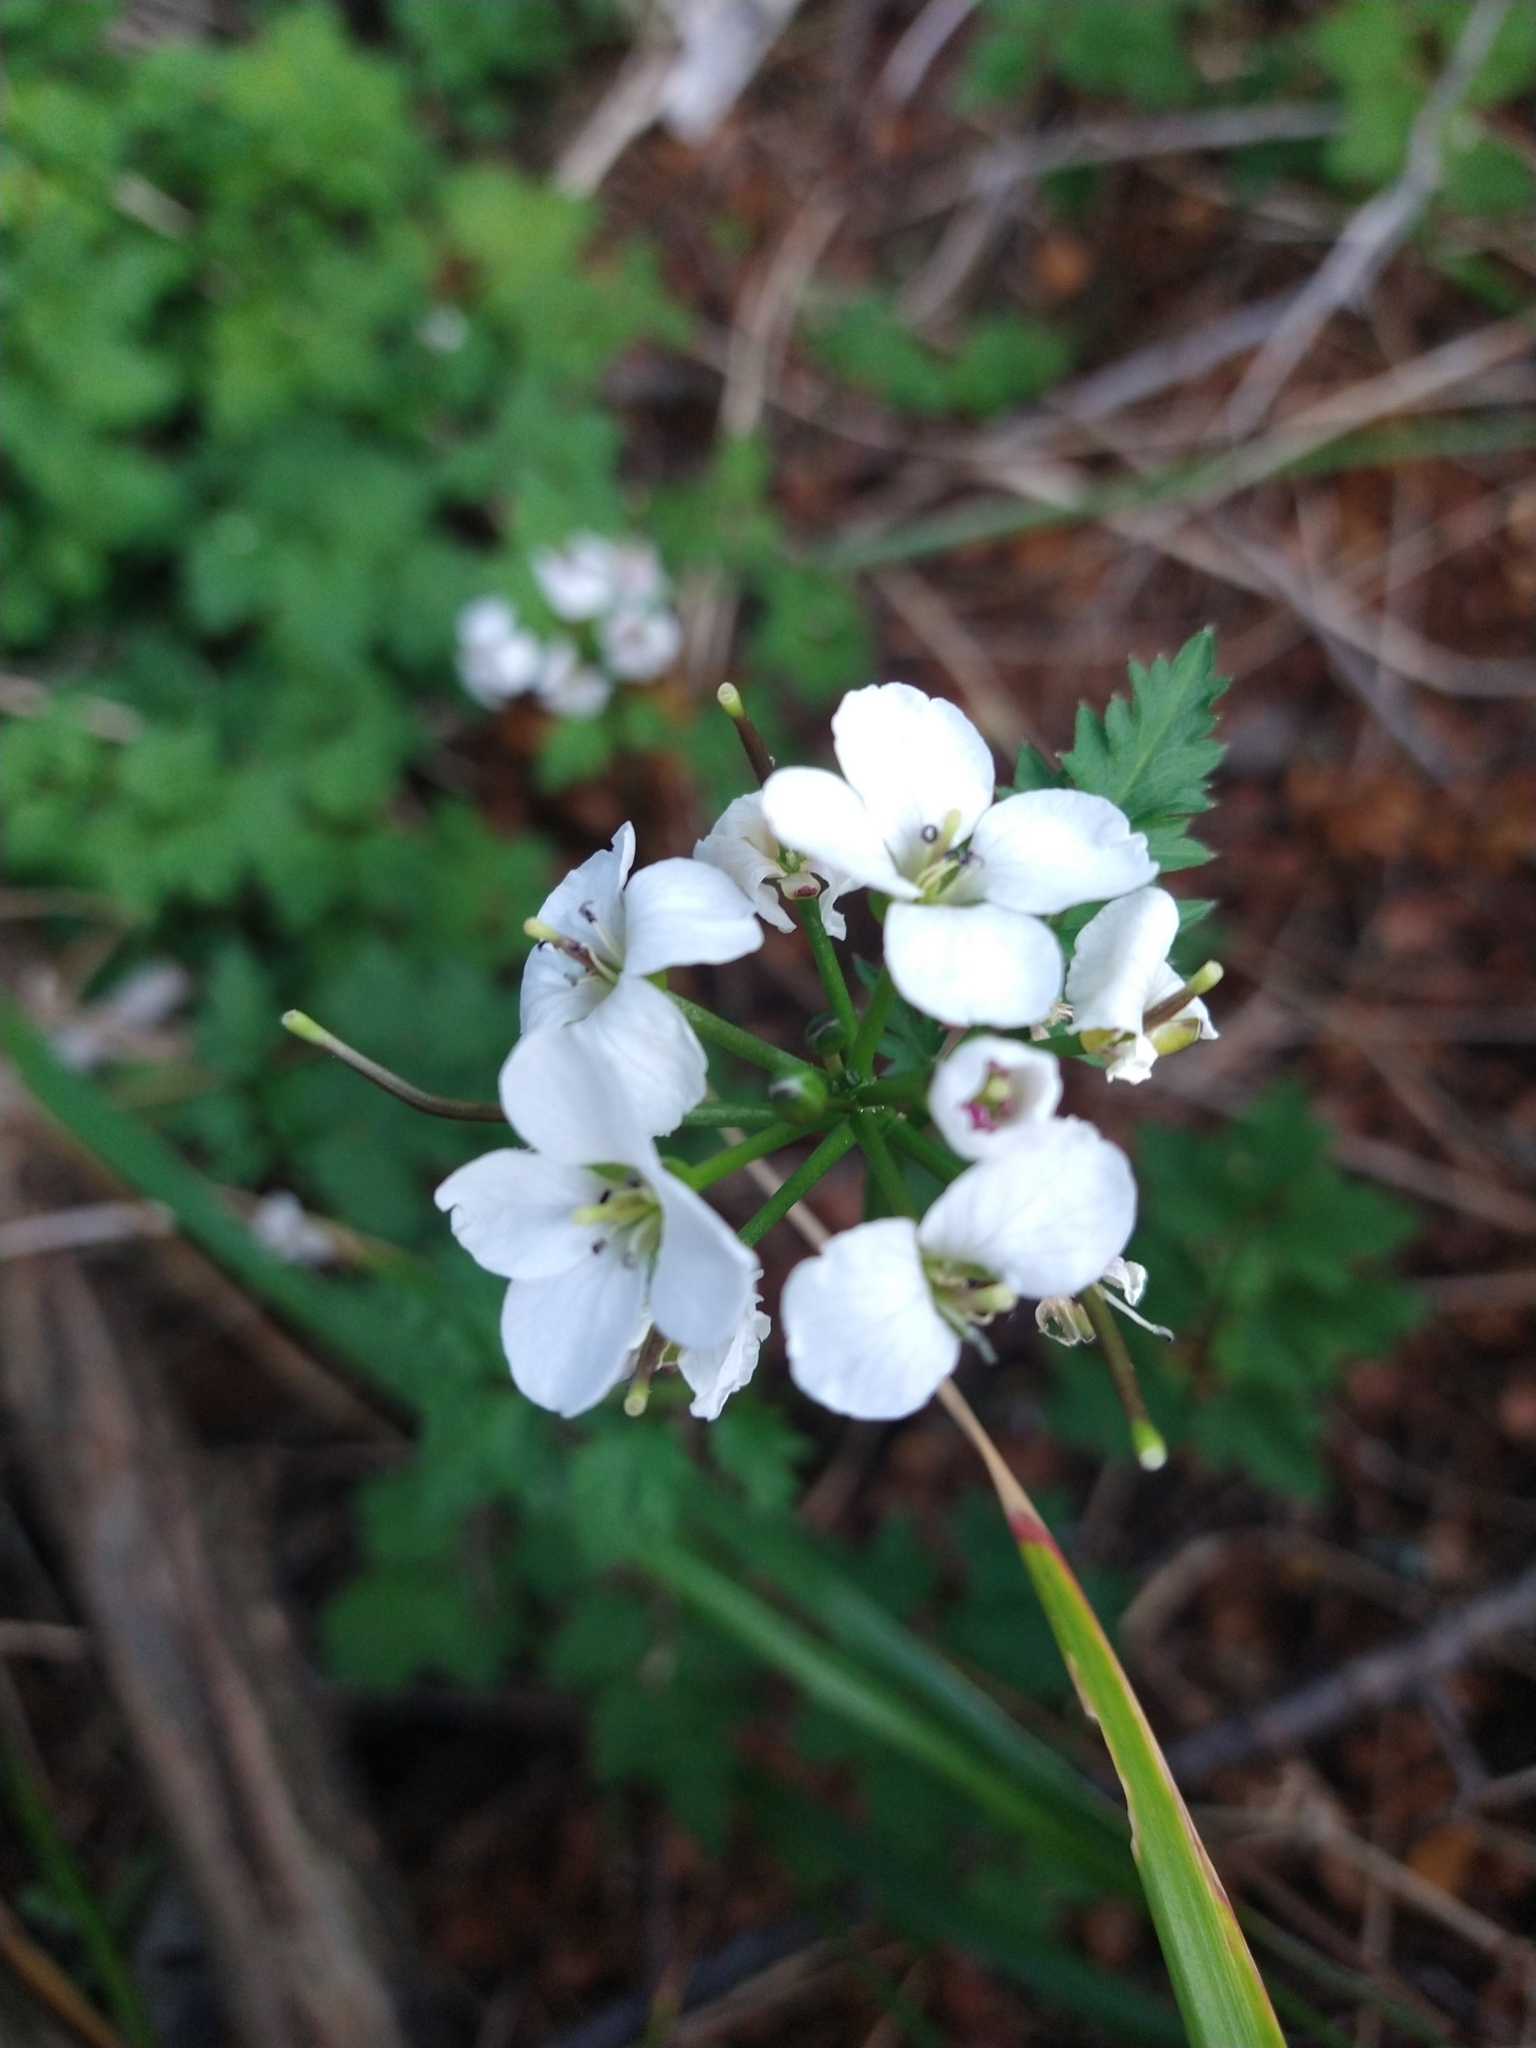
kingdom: Plantae
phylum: Tracheophyta
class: Magnoliopsida
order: Brassicales
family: Brassicaceae
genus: Cardamine
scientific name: Cardamine geraniifolia
